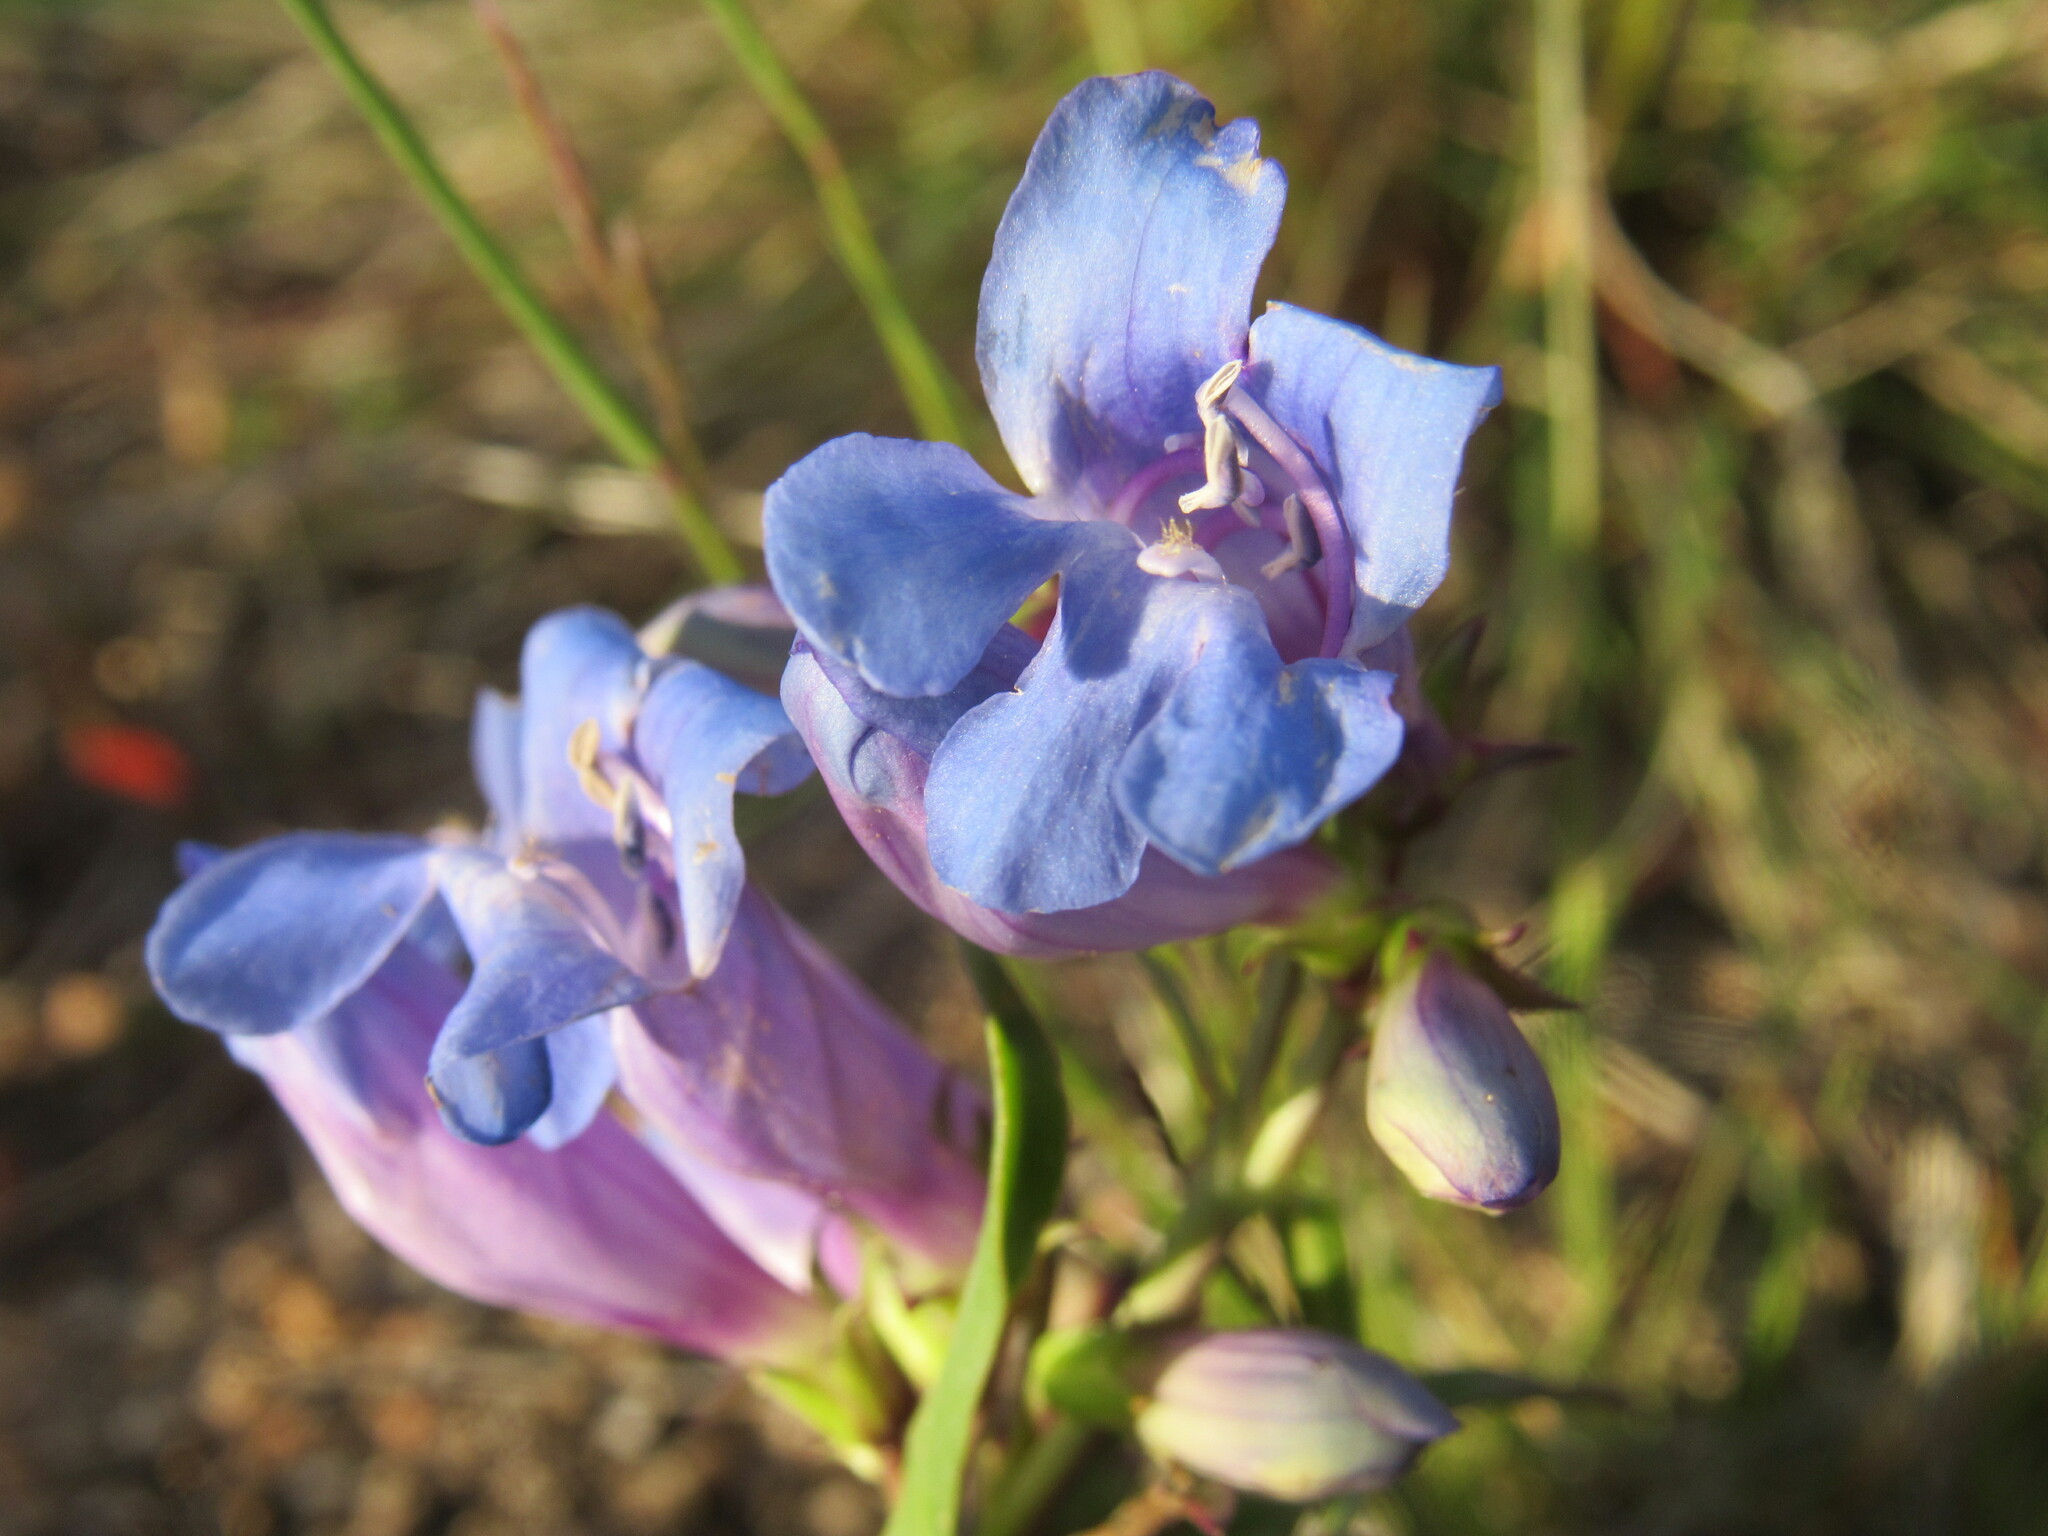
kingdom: Plantae
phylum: Tracheophyta
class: Magnoliopsida
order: Lamiales
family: Plantaginaceae
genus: Penstemon
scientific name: Penstemon glaber
